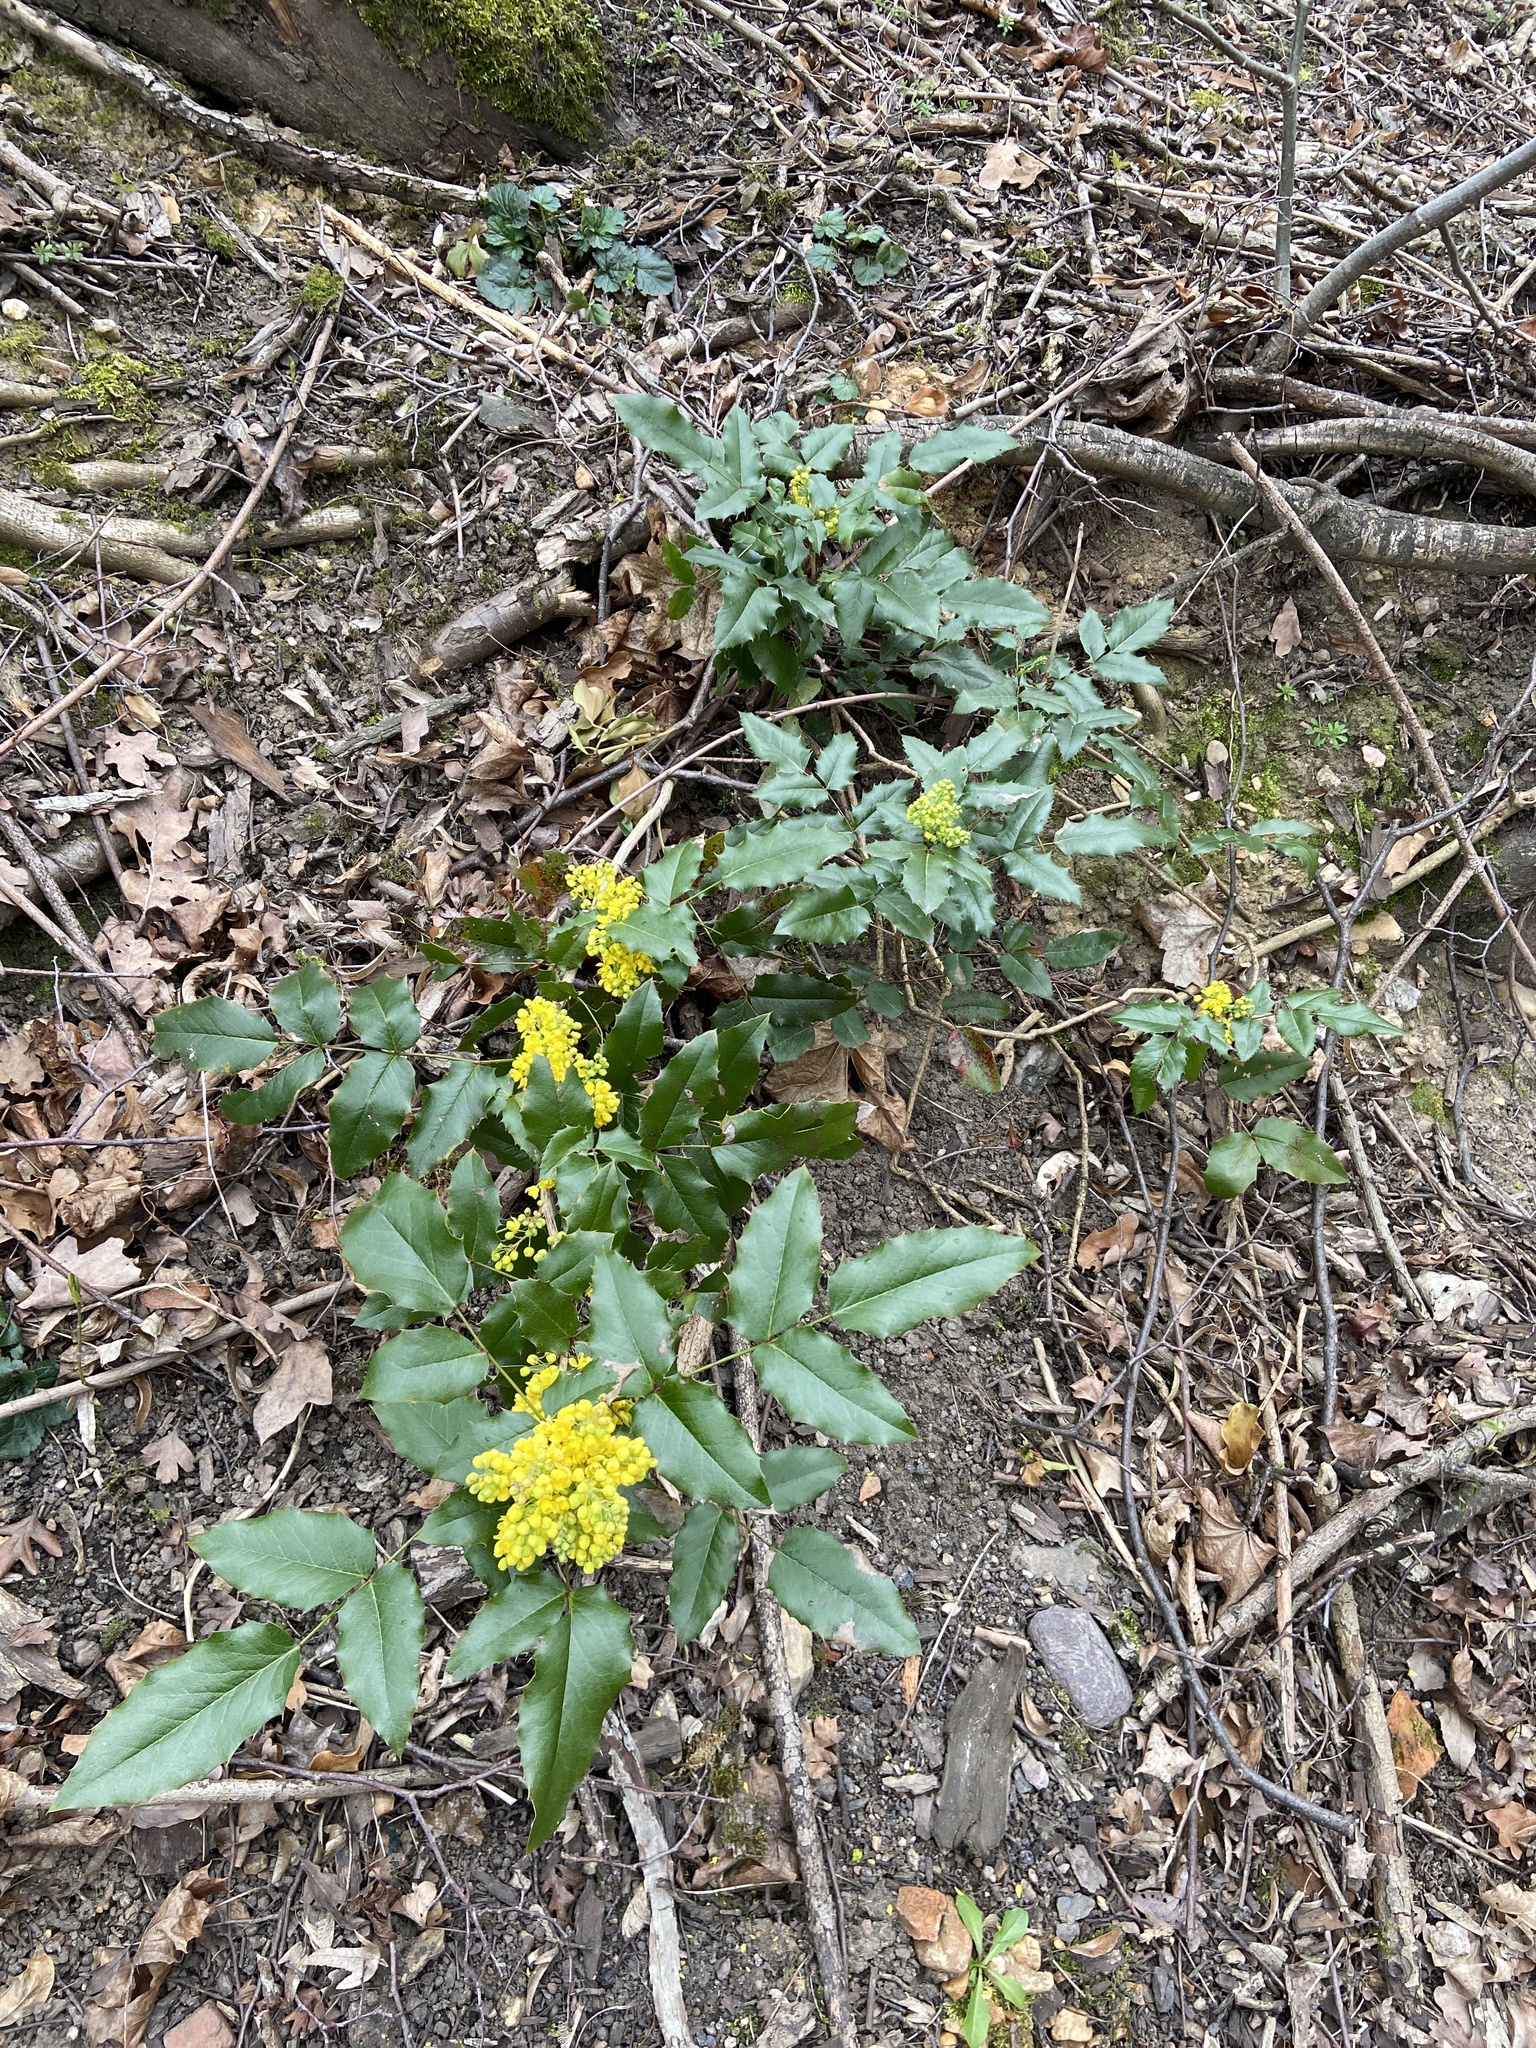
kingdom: Plantae
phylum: Tracheophyta
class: Magnoliopsida
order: Ranunculales
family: Berberidaceae
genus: Mahonia
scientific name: Mahonia aquifolium
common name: Oregon-grape
